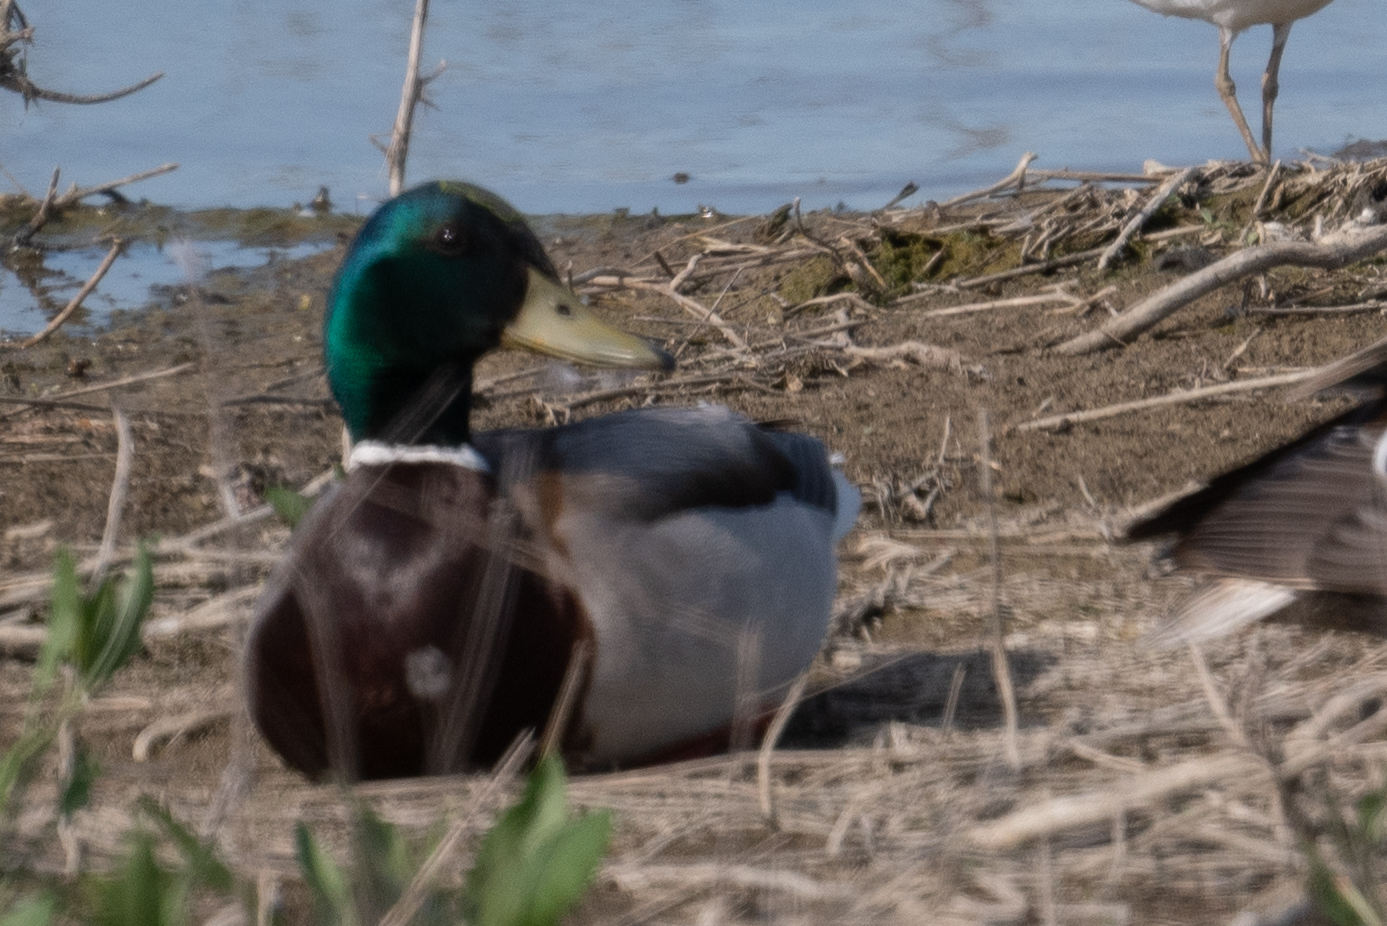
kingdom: Animalia
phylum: Chordata
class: Aves
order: Anseriformes
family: Anatidae
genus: Anas
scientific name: Anas platyrhynchos
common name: Mallard
